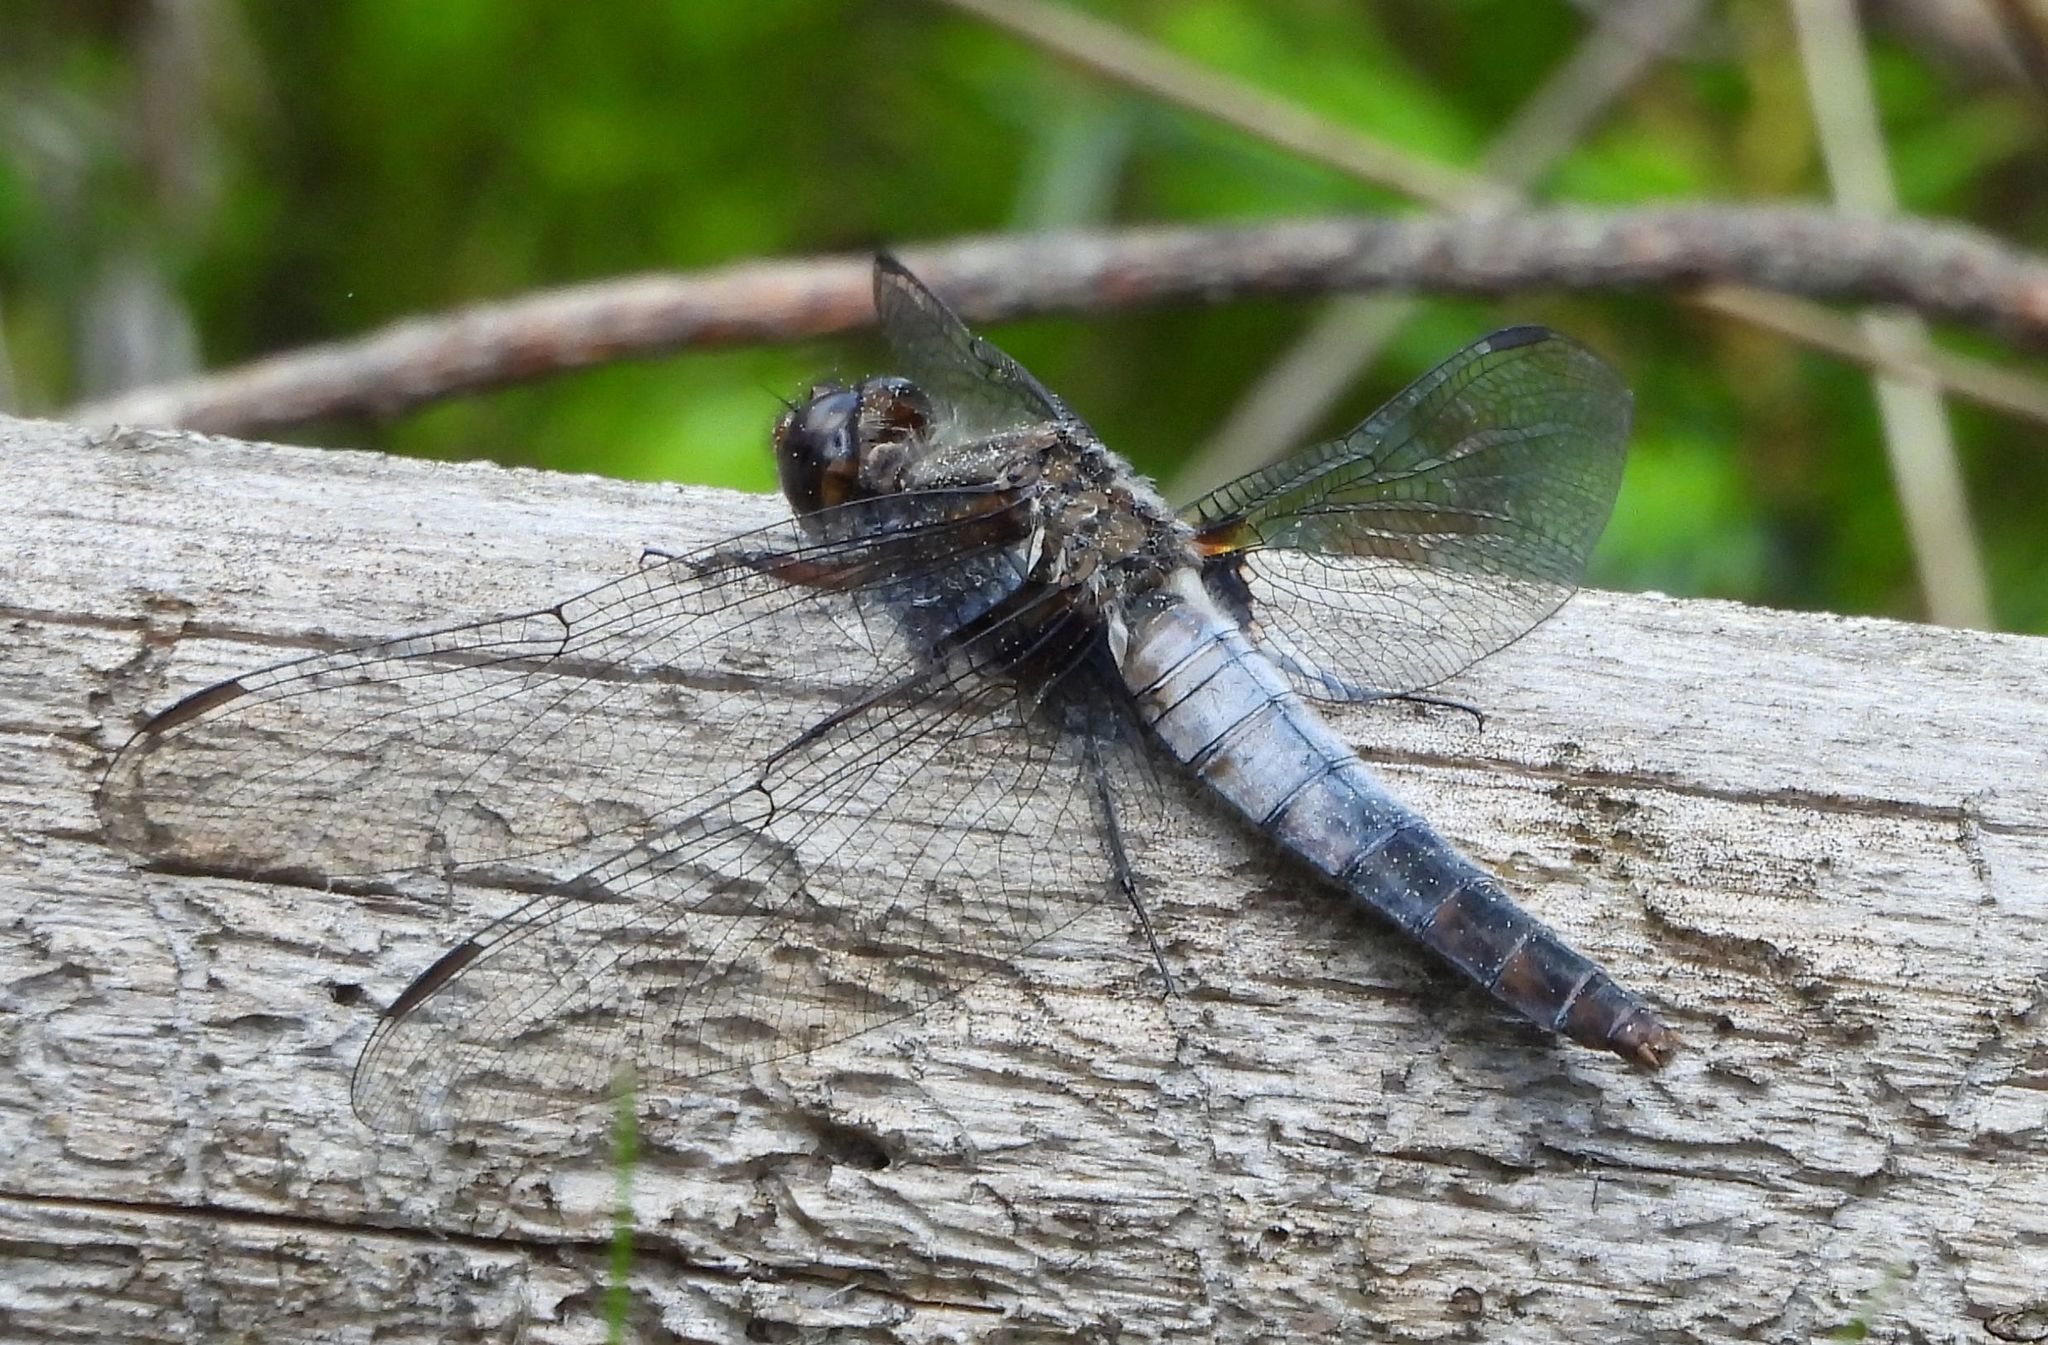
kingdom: Animalia
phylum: Arthropoda
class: Insecta
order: Odonata
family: Libellulidae
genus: Ladona
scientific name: Ladona julia
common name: Chalk-fronted corporal
